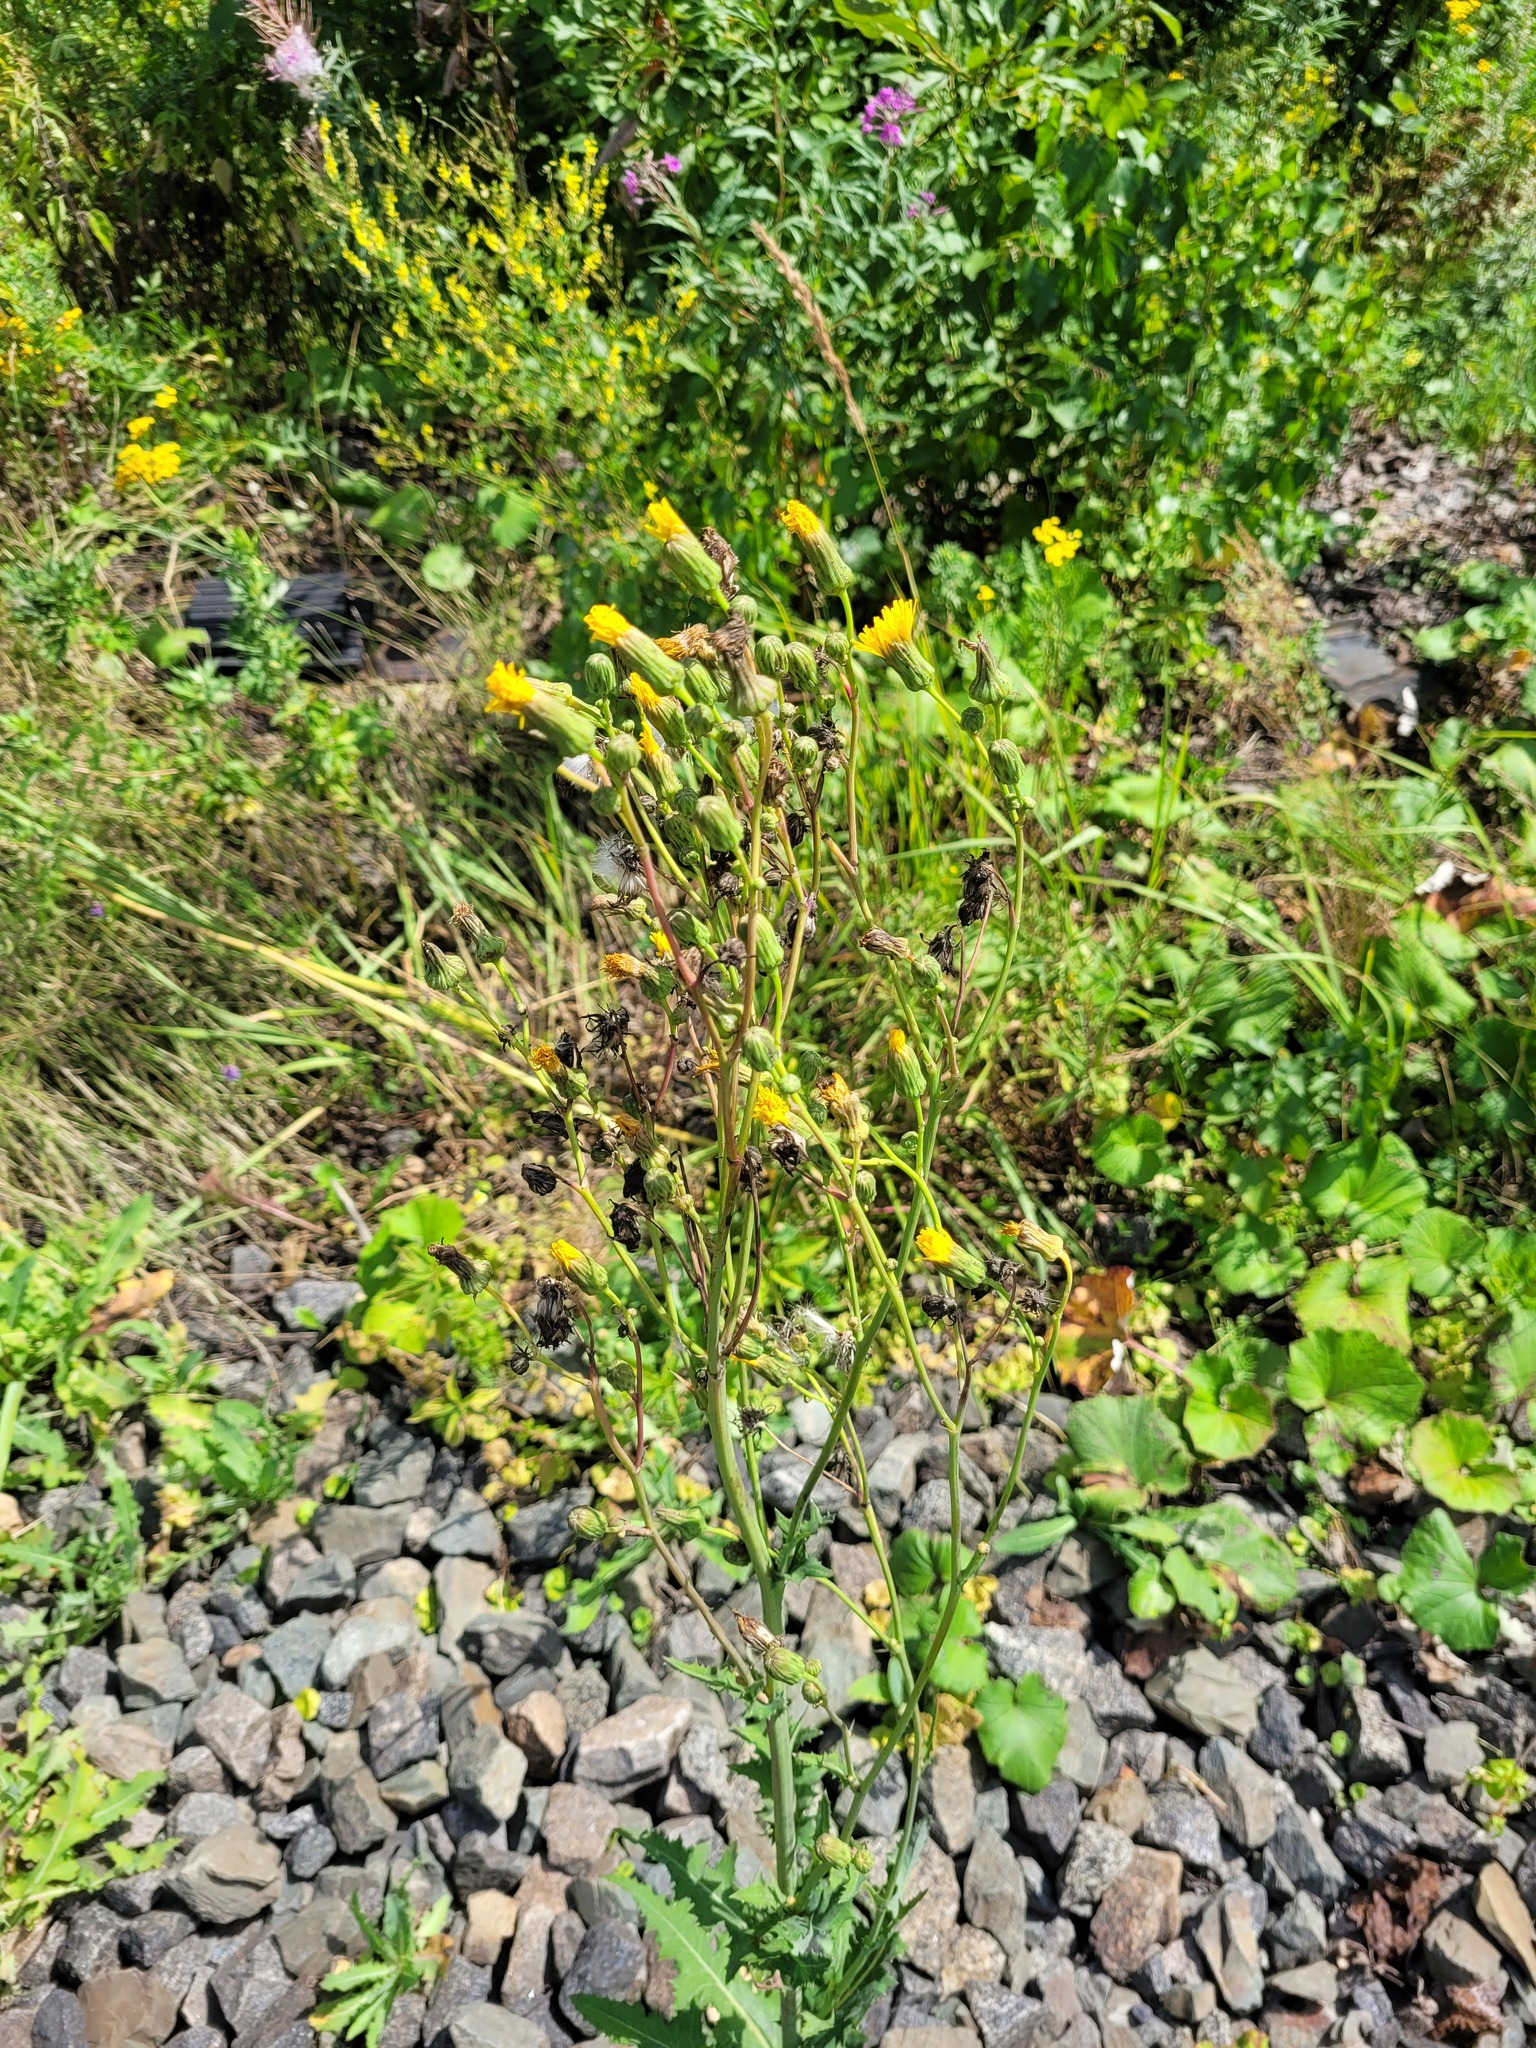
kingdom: Plantae
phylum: Tracheophyta
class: Magnoliopsida
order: Asterales
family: Asteraceae
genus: Sonchus
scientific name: Sonchus arvensis
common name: Perennial sow-thistle
